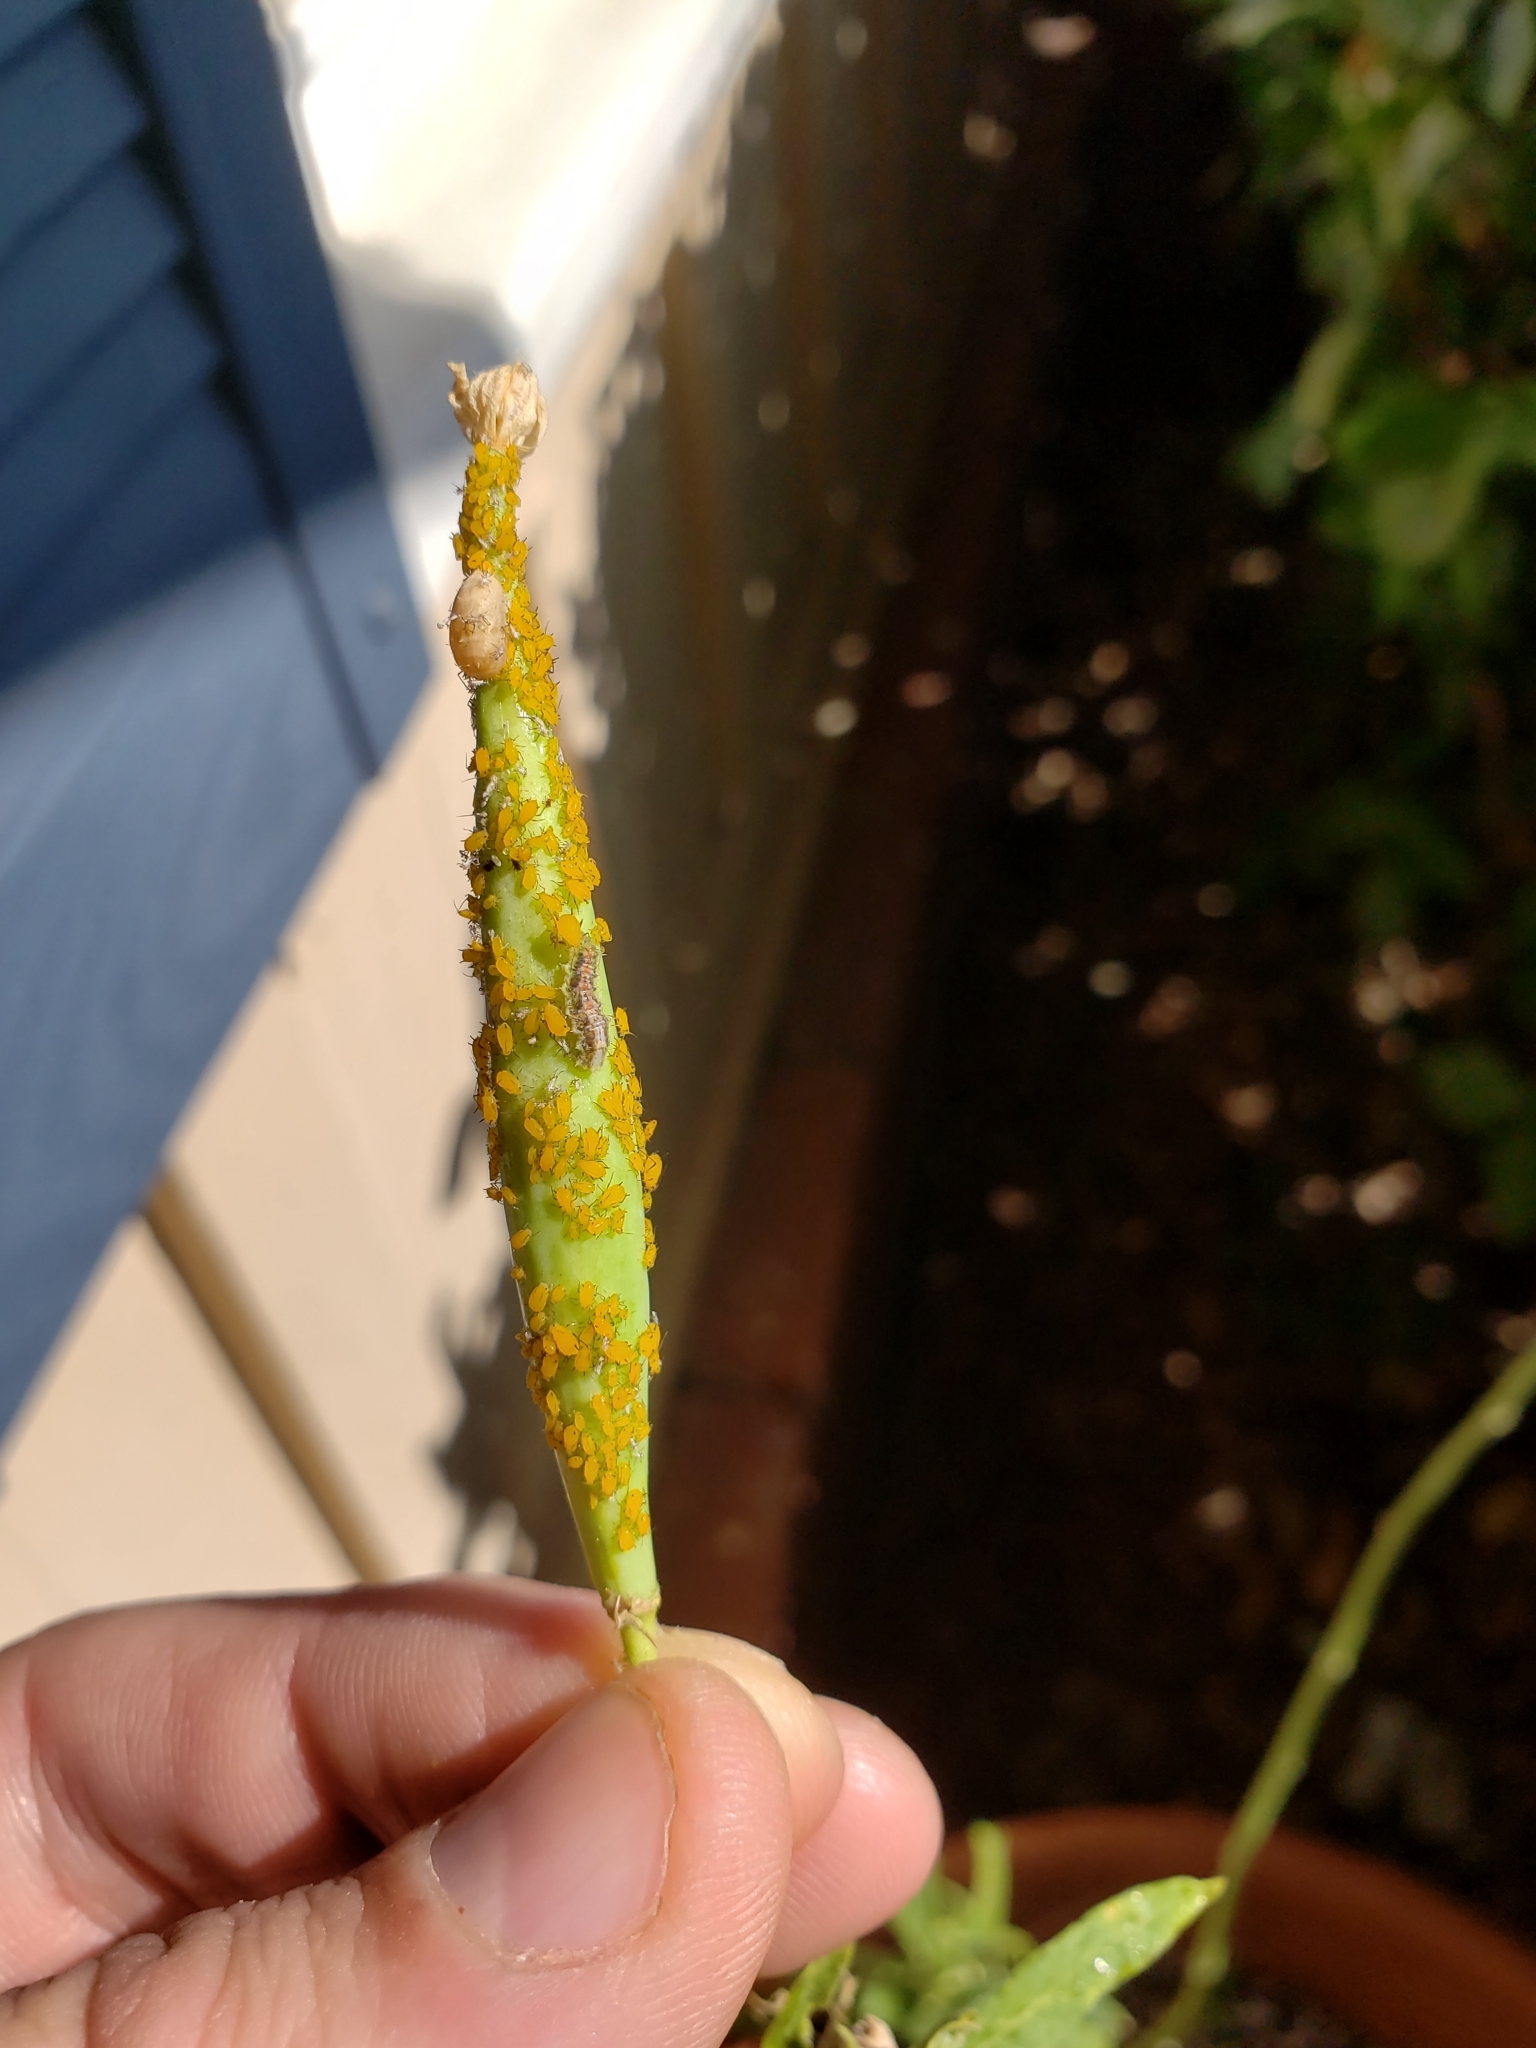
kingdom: Animalia
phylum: Arthropoda
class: Insecta
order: Hemiptera
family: Aphididae
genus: Aphis
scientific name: Aphis nerii
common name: Oleander aphid
